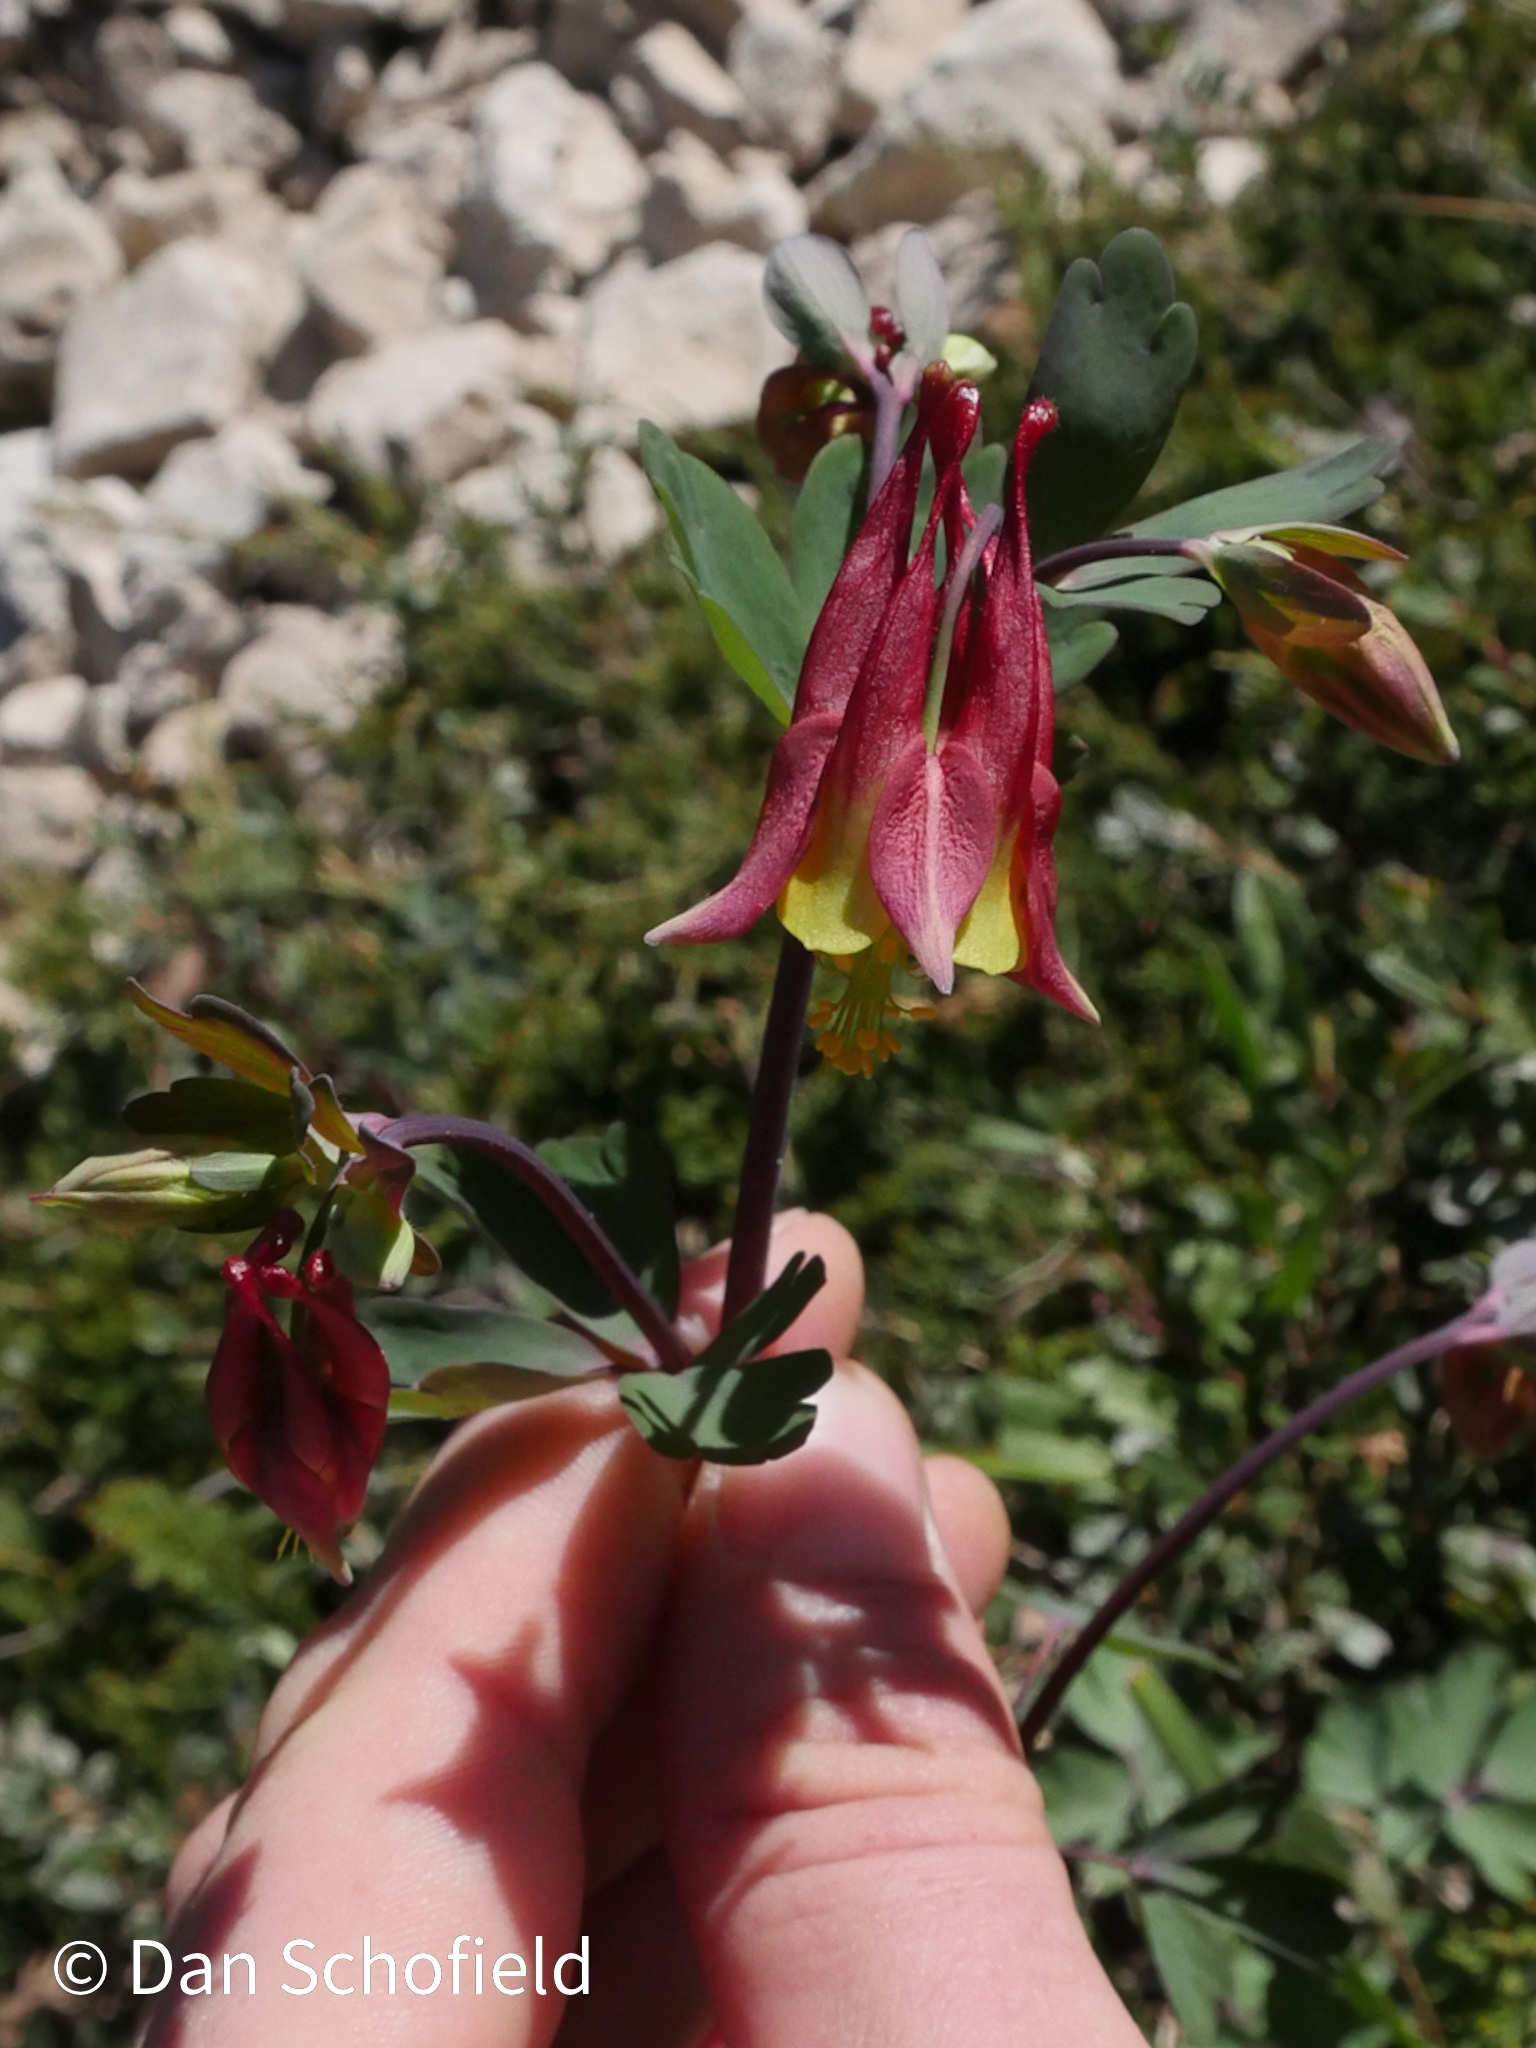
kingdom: Plantae
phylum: Tracheophyta
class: Magnoliopsida
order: Ranunculales
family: Ranunculaceae
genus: Aquilegia
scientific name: Aquilegia canadensis
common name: American columbine
